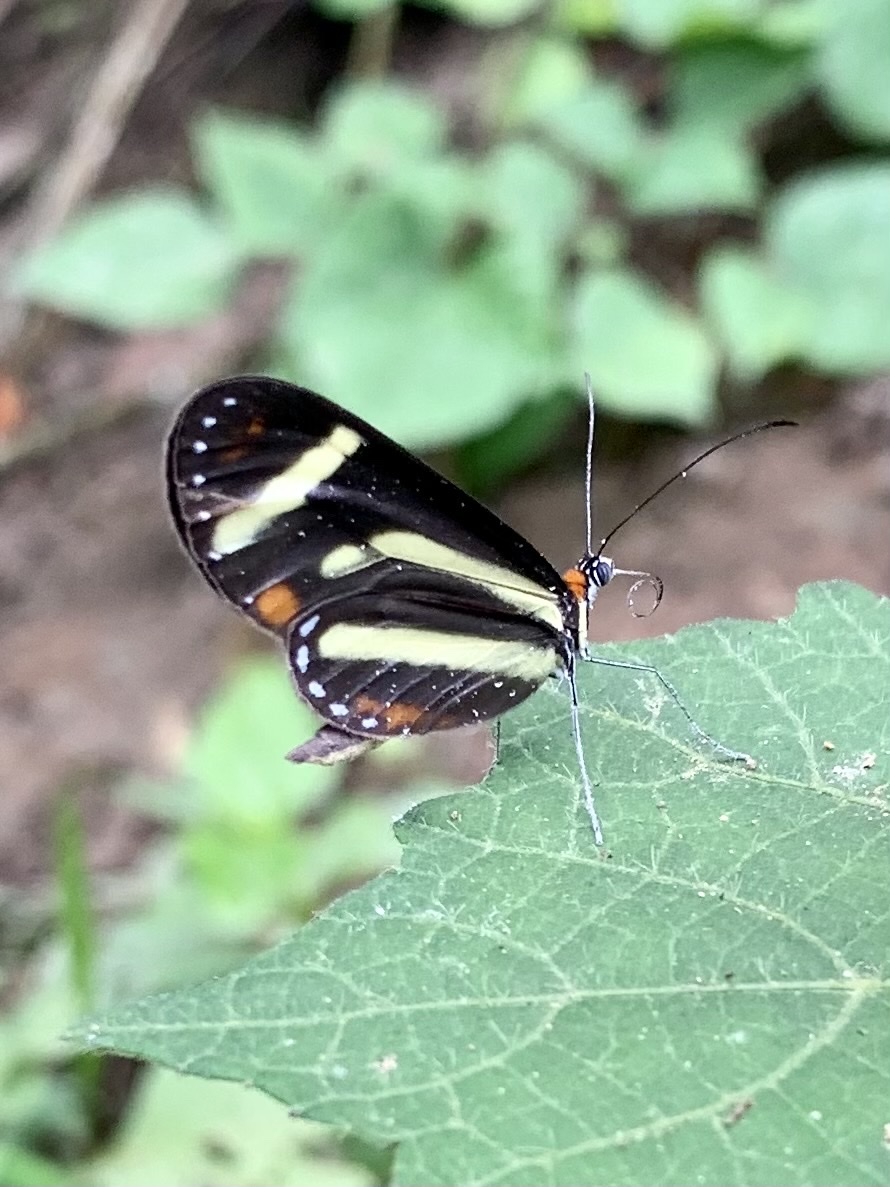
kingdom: Animalia
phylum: Arthropoda
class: Insecta
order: Lepidoptera
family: Nymphalidae
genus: Scada
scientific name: Scada
